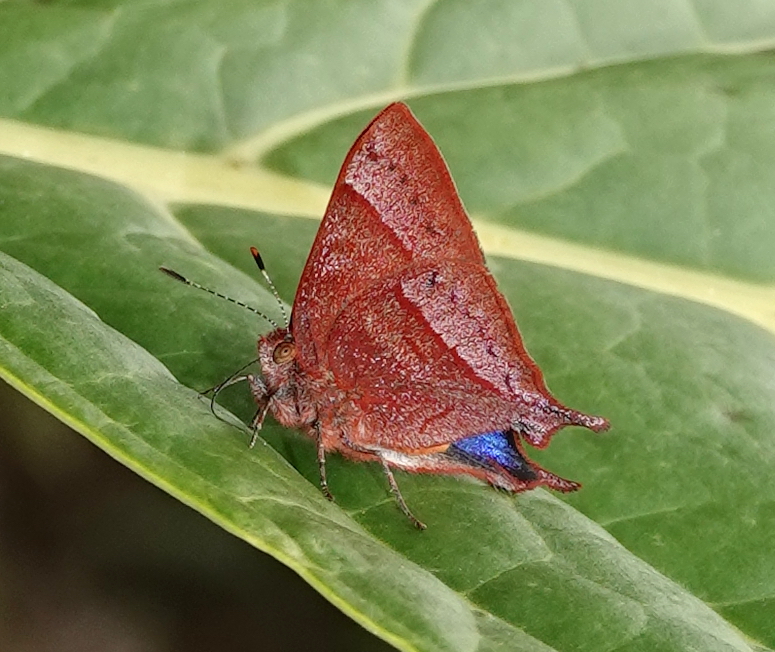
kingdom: Animalia
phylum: Arthropoda
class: Insecta
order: Lepidoptera
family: Lycaenidae
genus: Penaincisalia
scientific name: Penaincisalia loxurina
